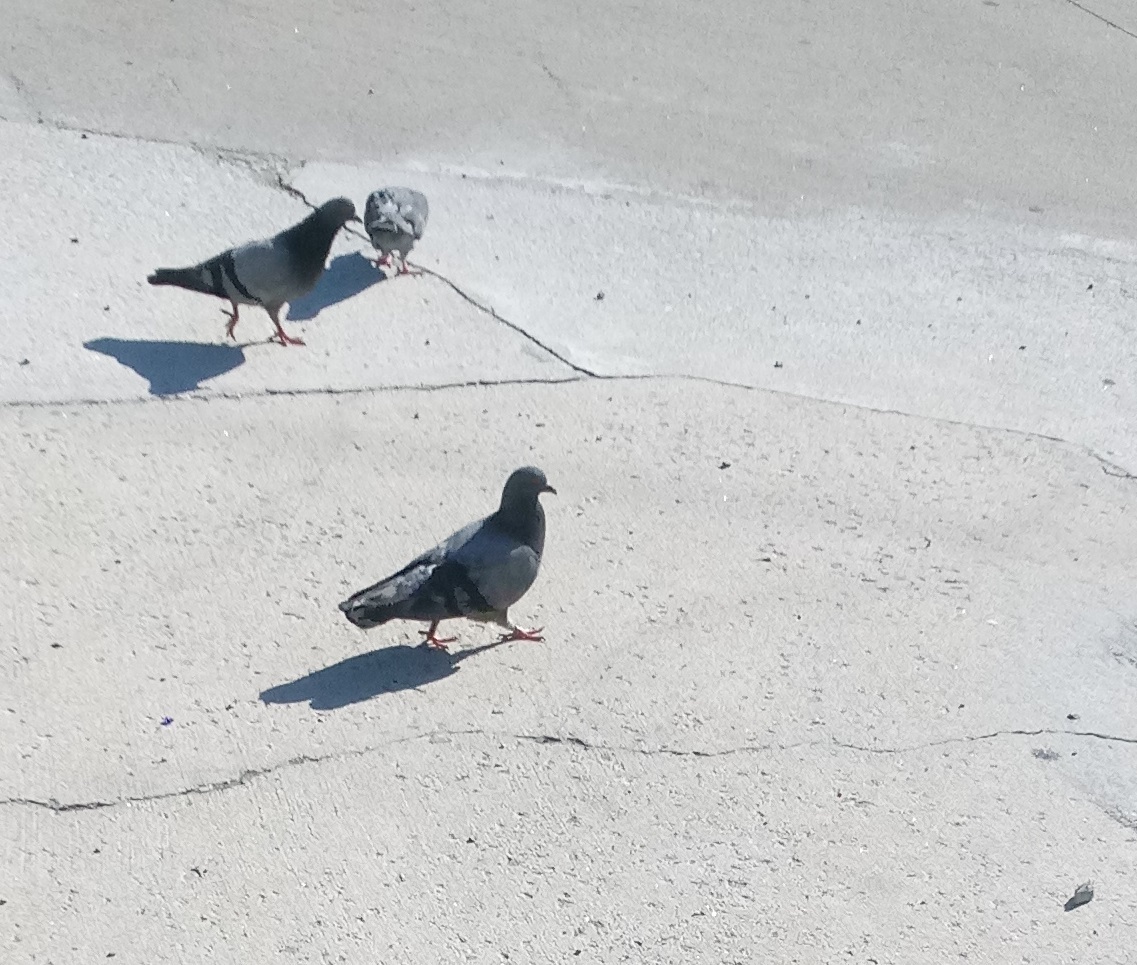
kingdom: Animalia
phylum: Chordata
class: Aves
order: Columbiformes
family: Columbidae
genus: Columba
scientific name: Columba livia
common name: Rock pigeon
